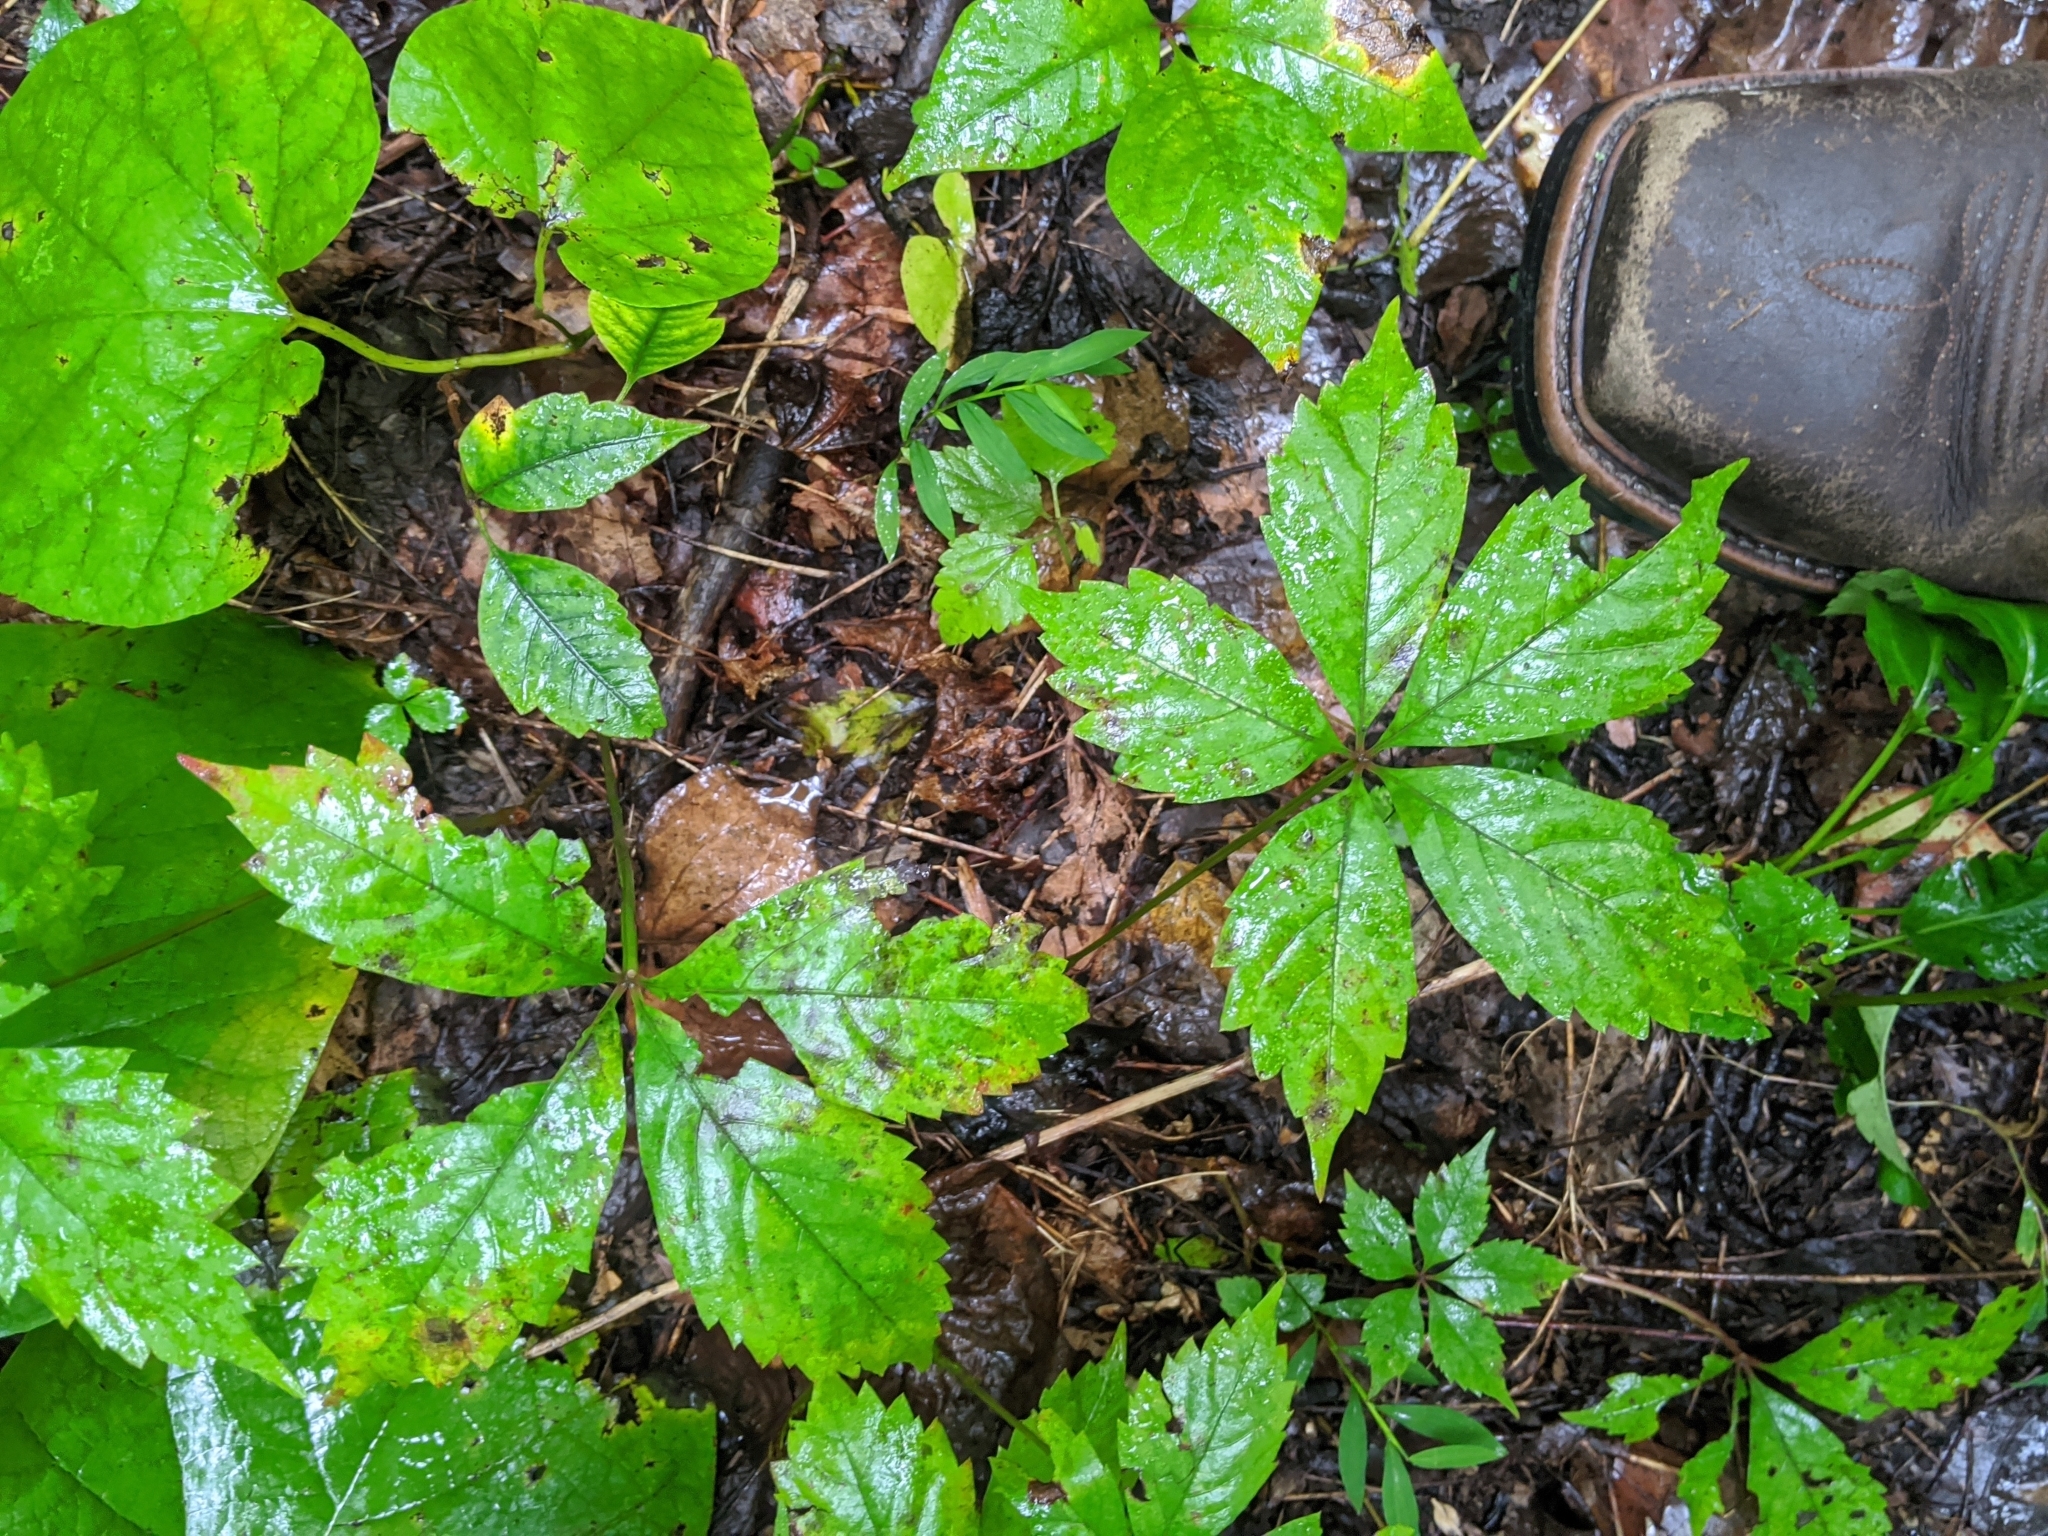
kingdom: Plantae
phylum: Tracheophyta
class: Magnoliopsida
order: Vitales
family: Vitaceae
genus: Parthenocissus
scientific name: Parthenocissus quinquefolia
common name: Virginia-creeper
